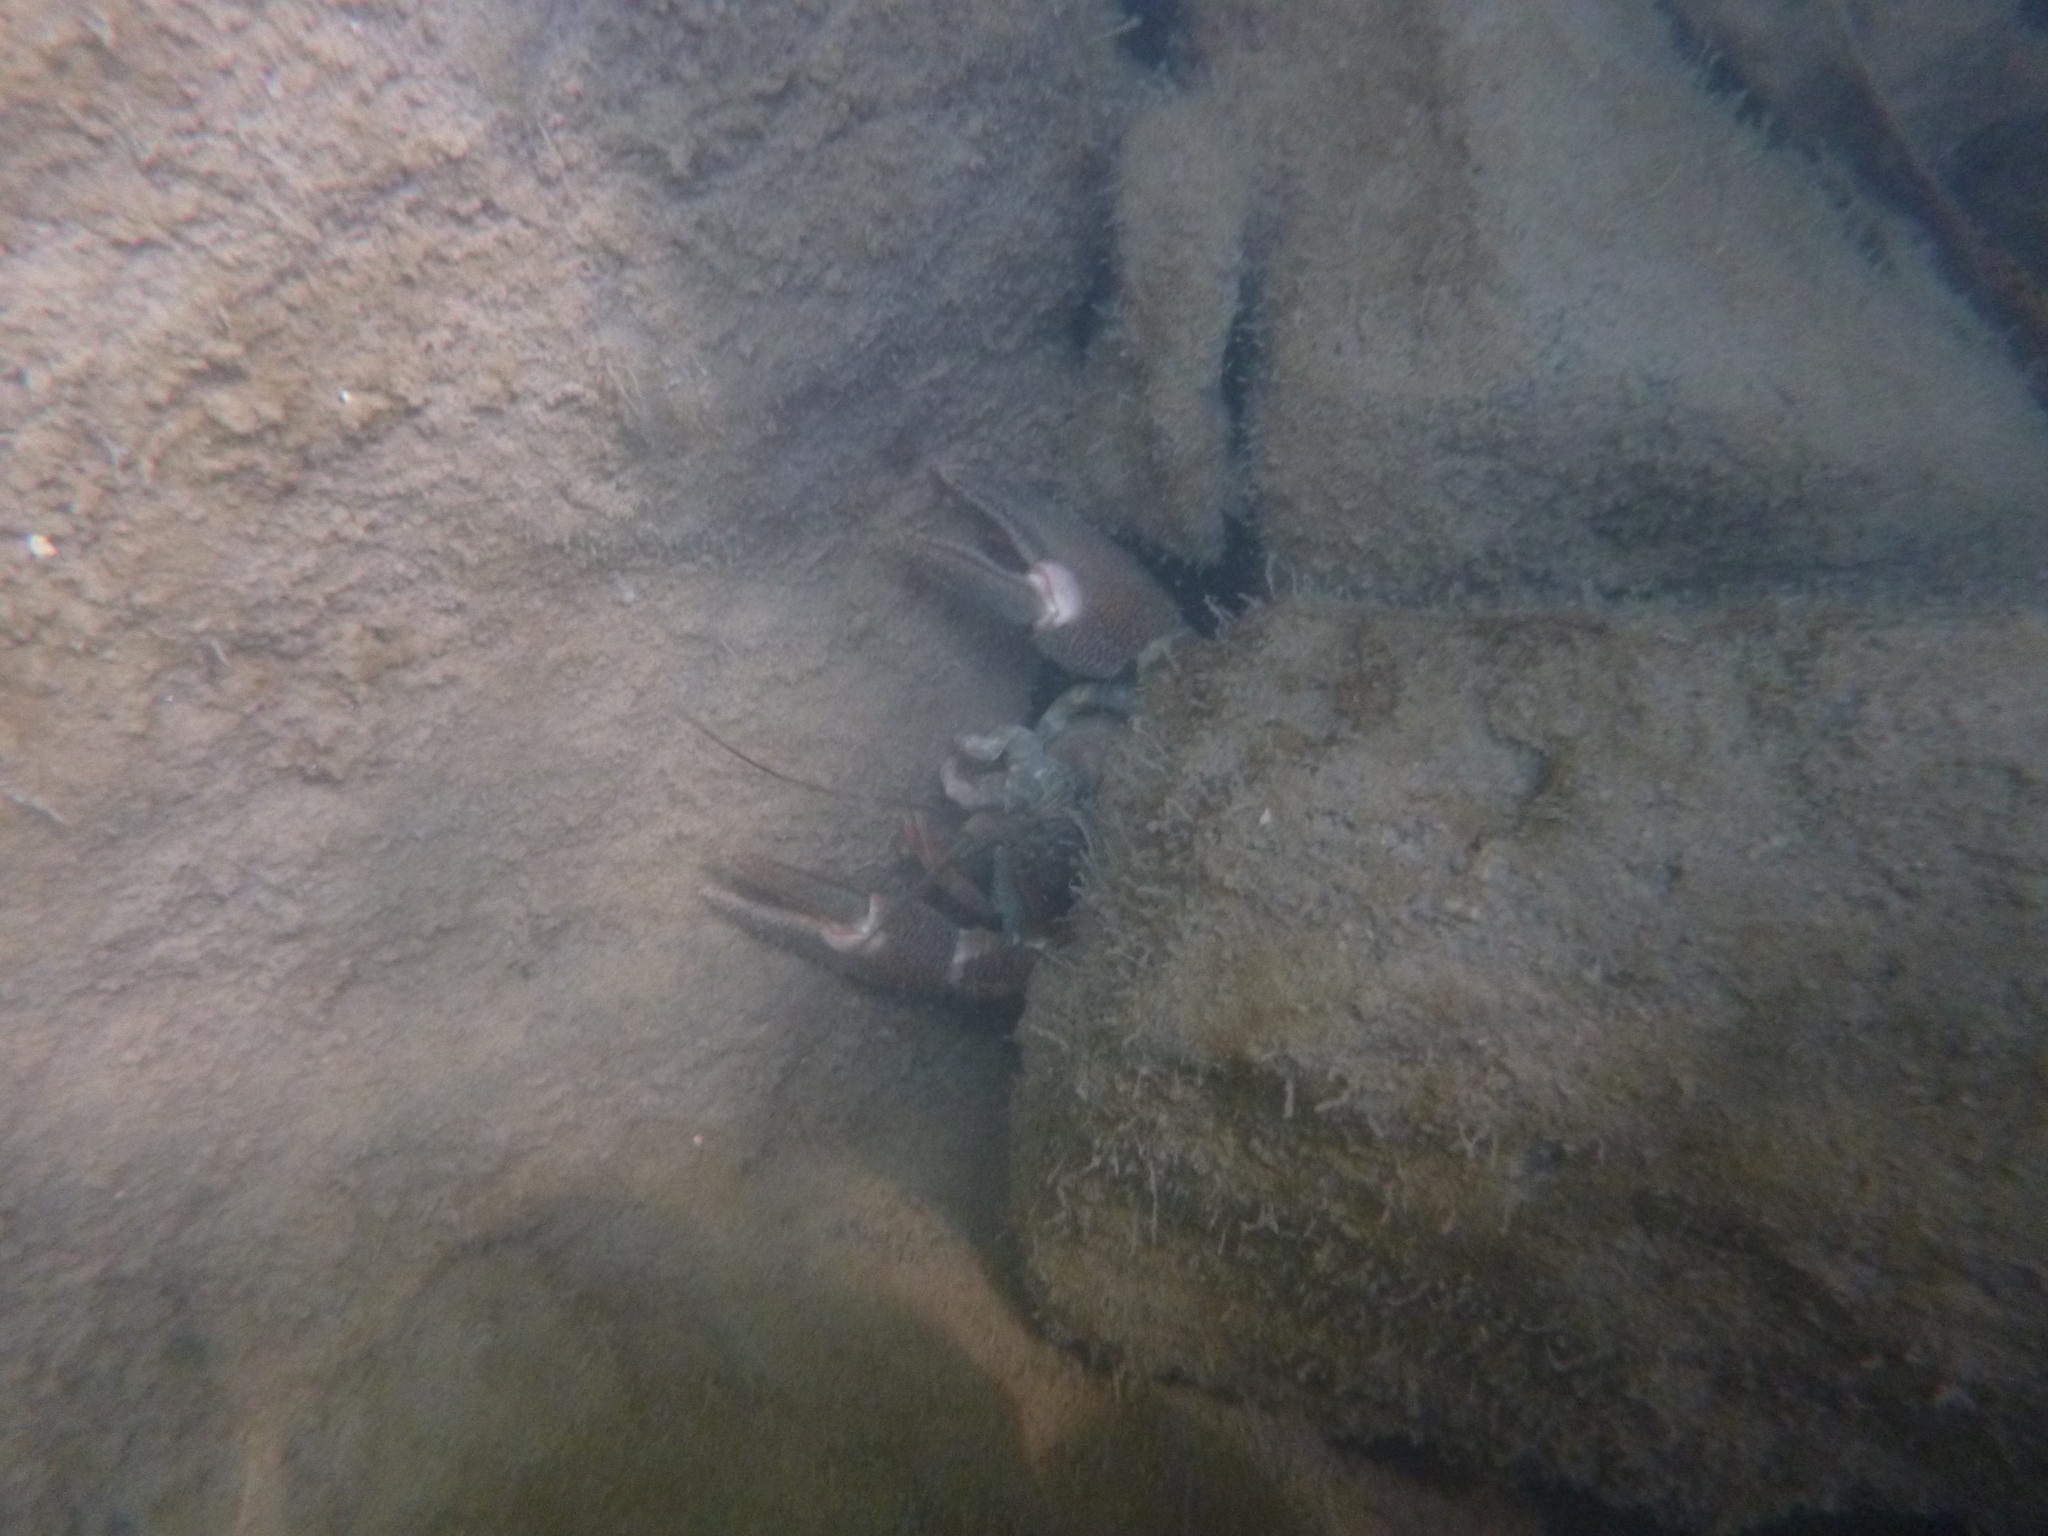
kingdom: Animalia
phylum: Arthropoda
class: Malacostraca
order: Decapoda
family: Astacidae
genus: Pacifastacus
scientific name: Pacifastacus leniusculus
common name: Signal crayfish
